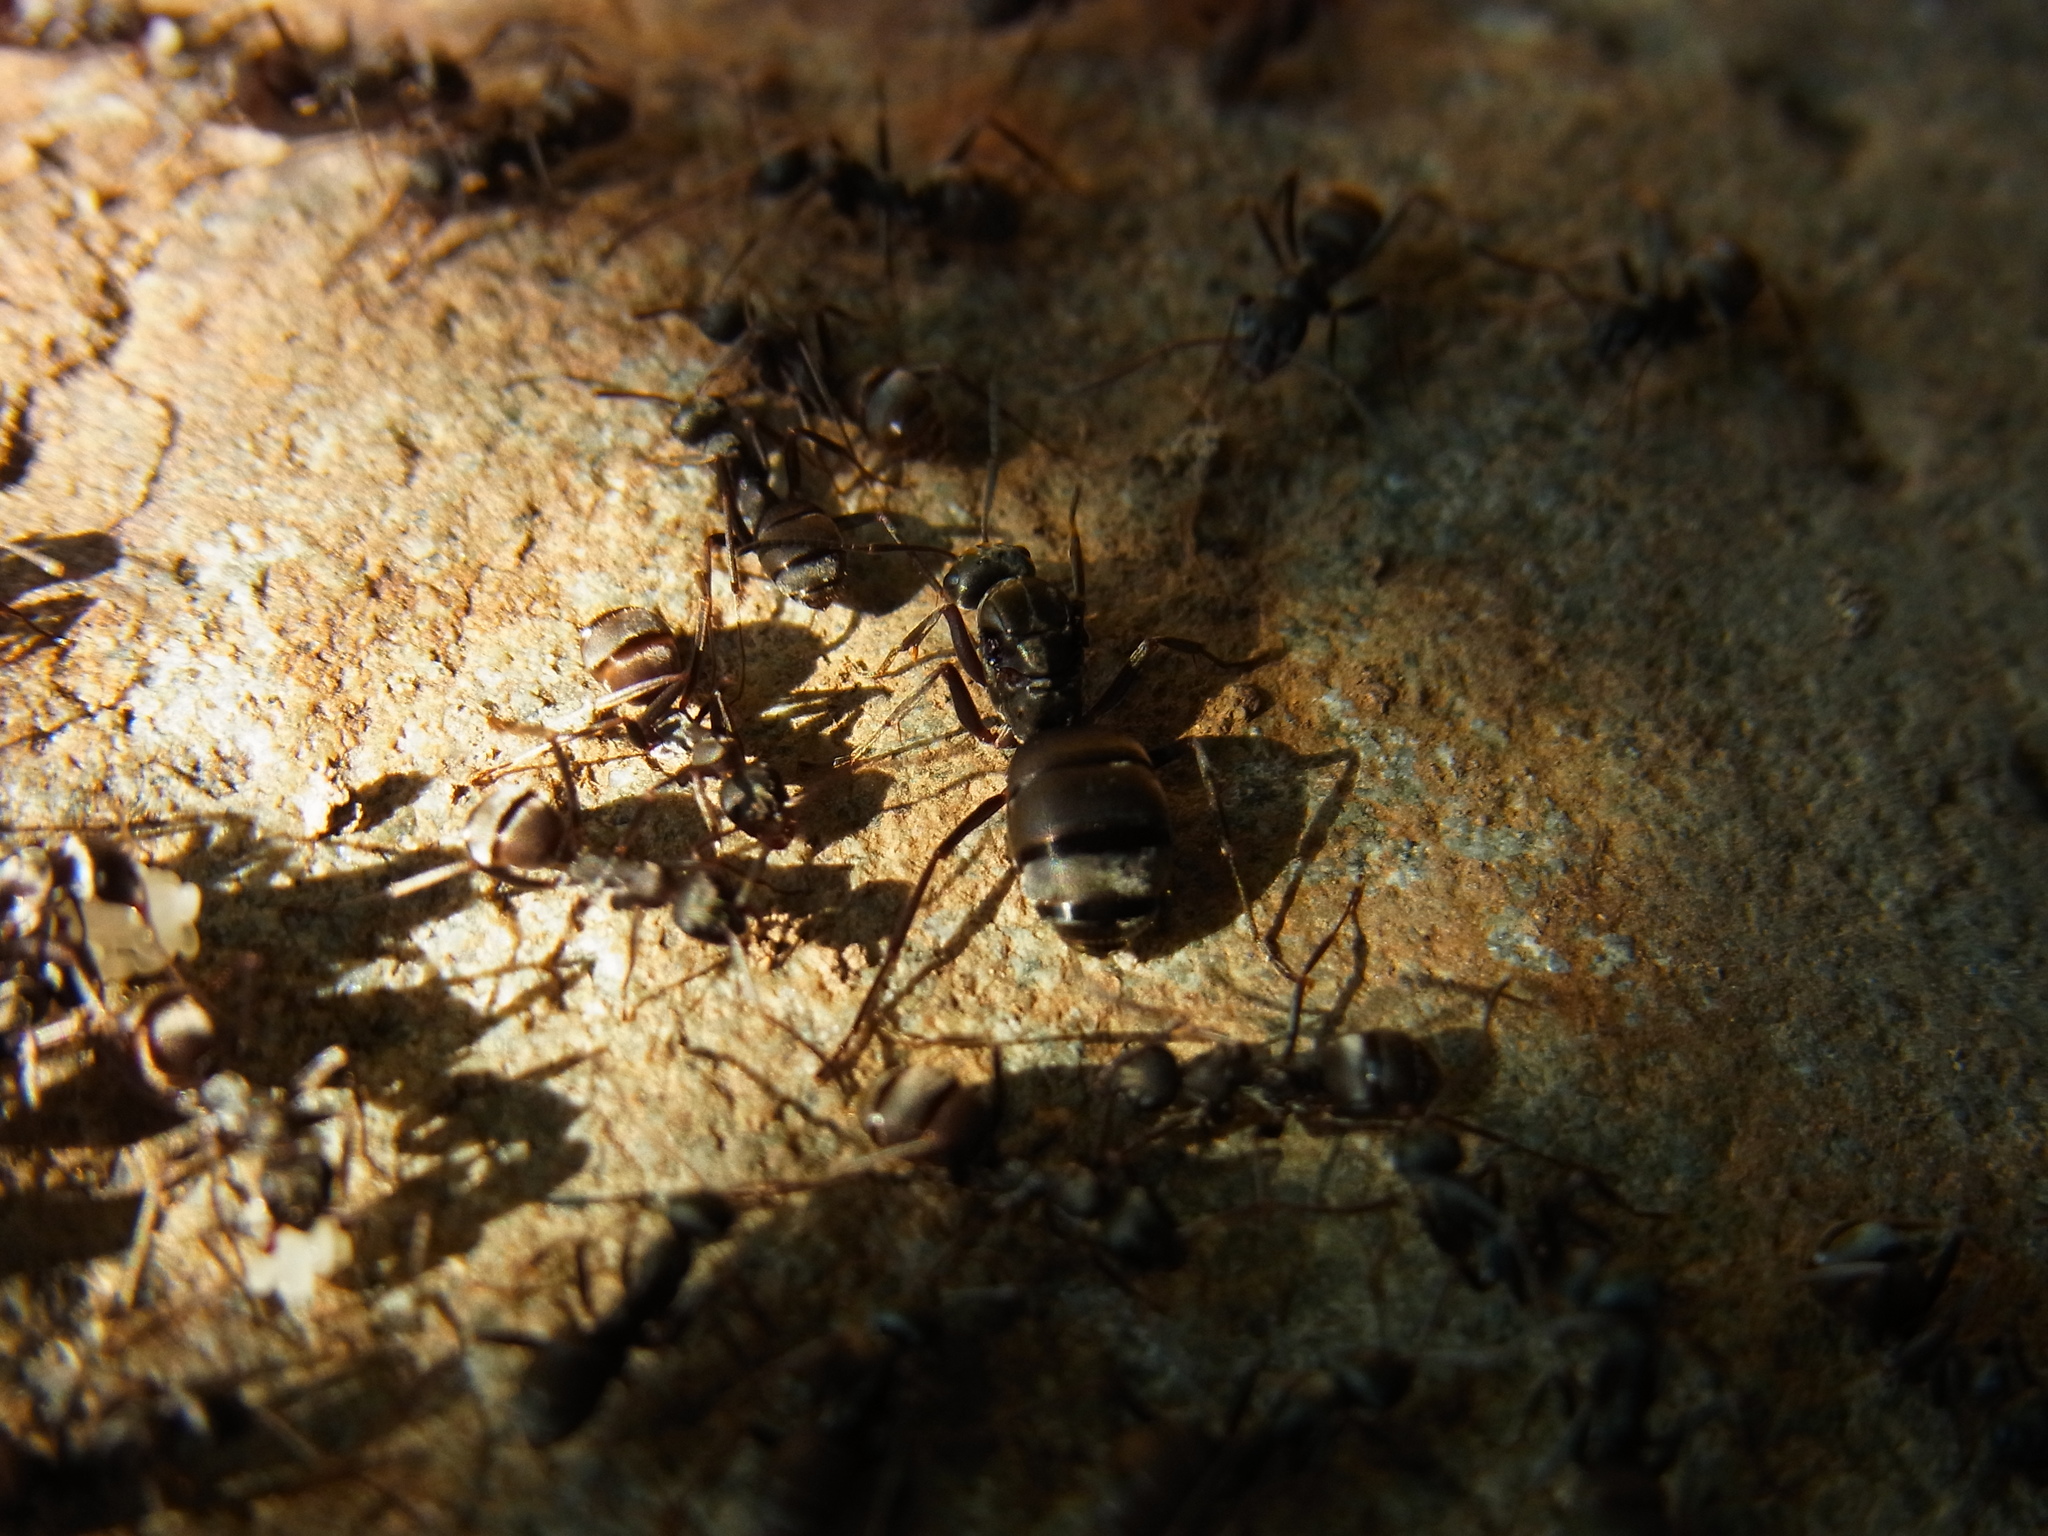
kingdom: Animalia
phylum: Arthropoda
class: Insecta
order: Hymenoptera
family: Formicidae
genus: Formica
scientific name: Formica japonica
